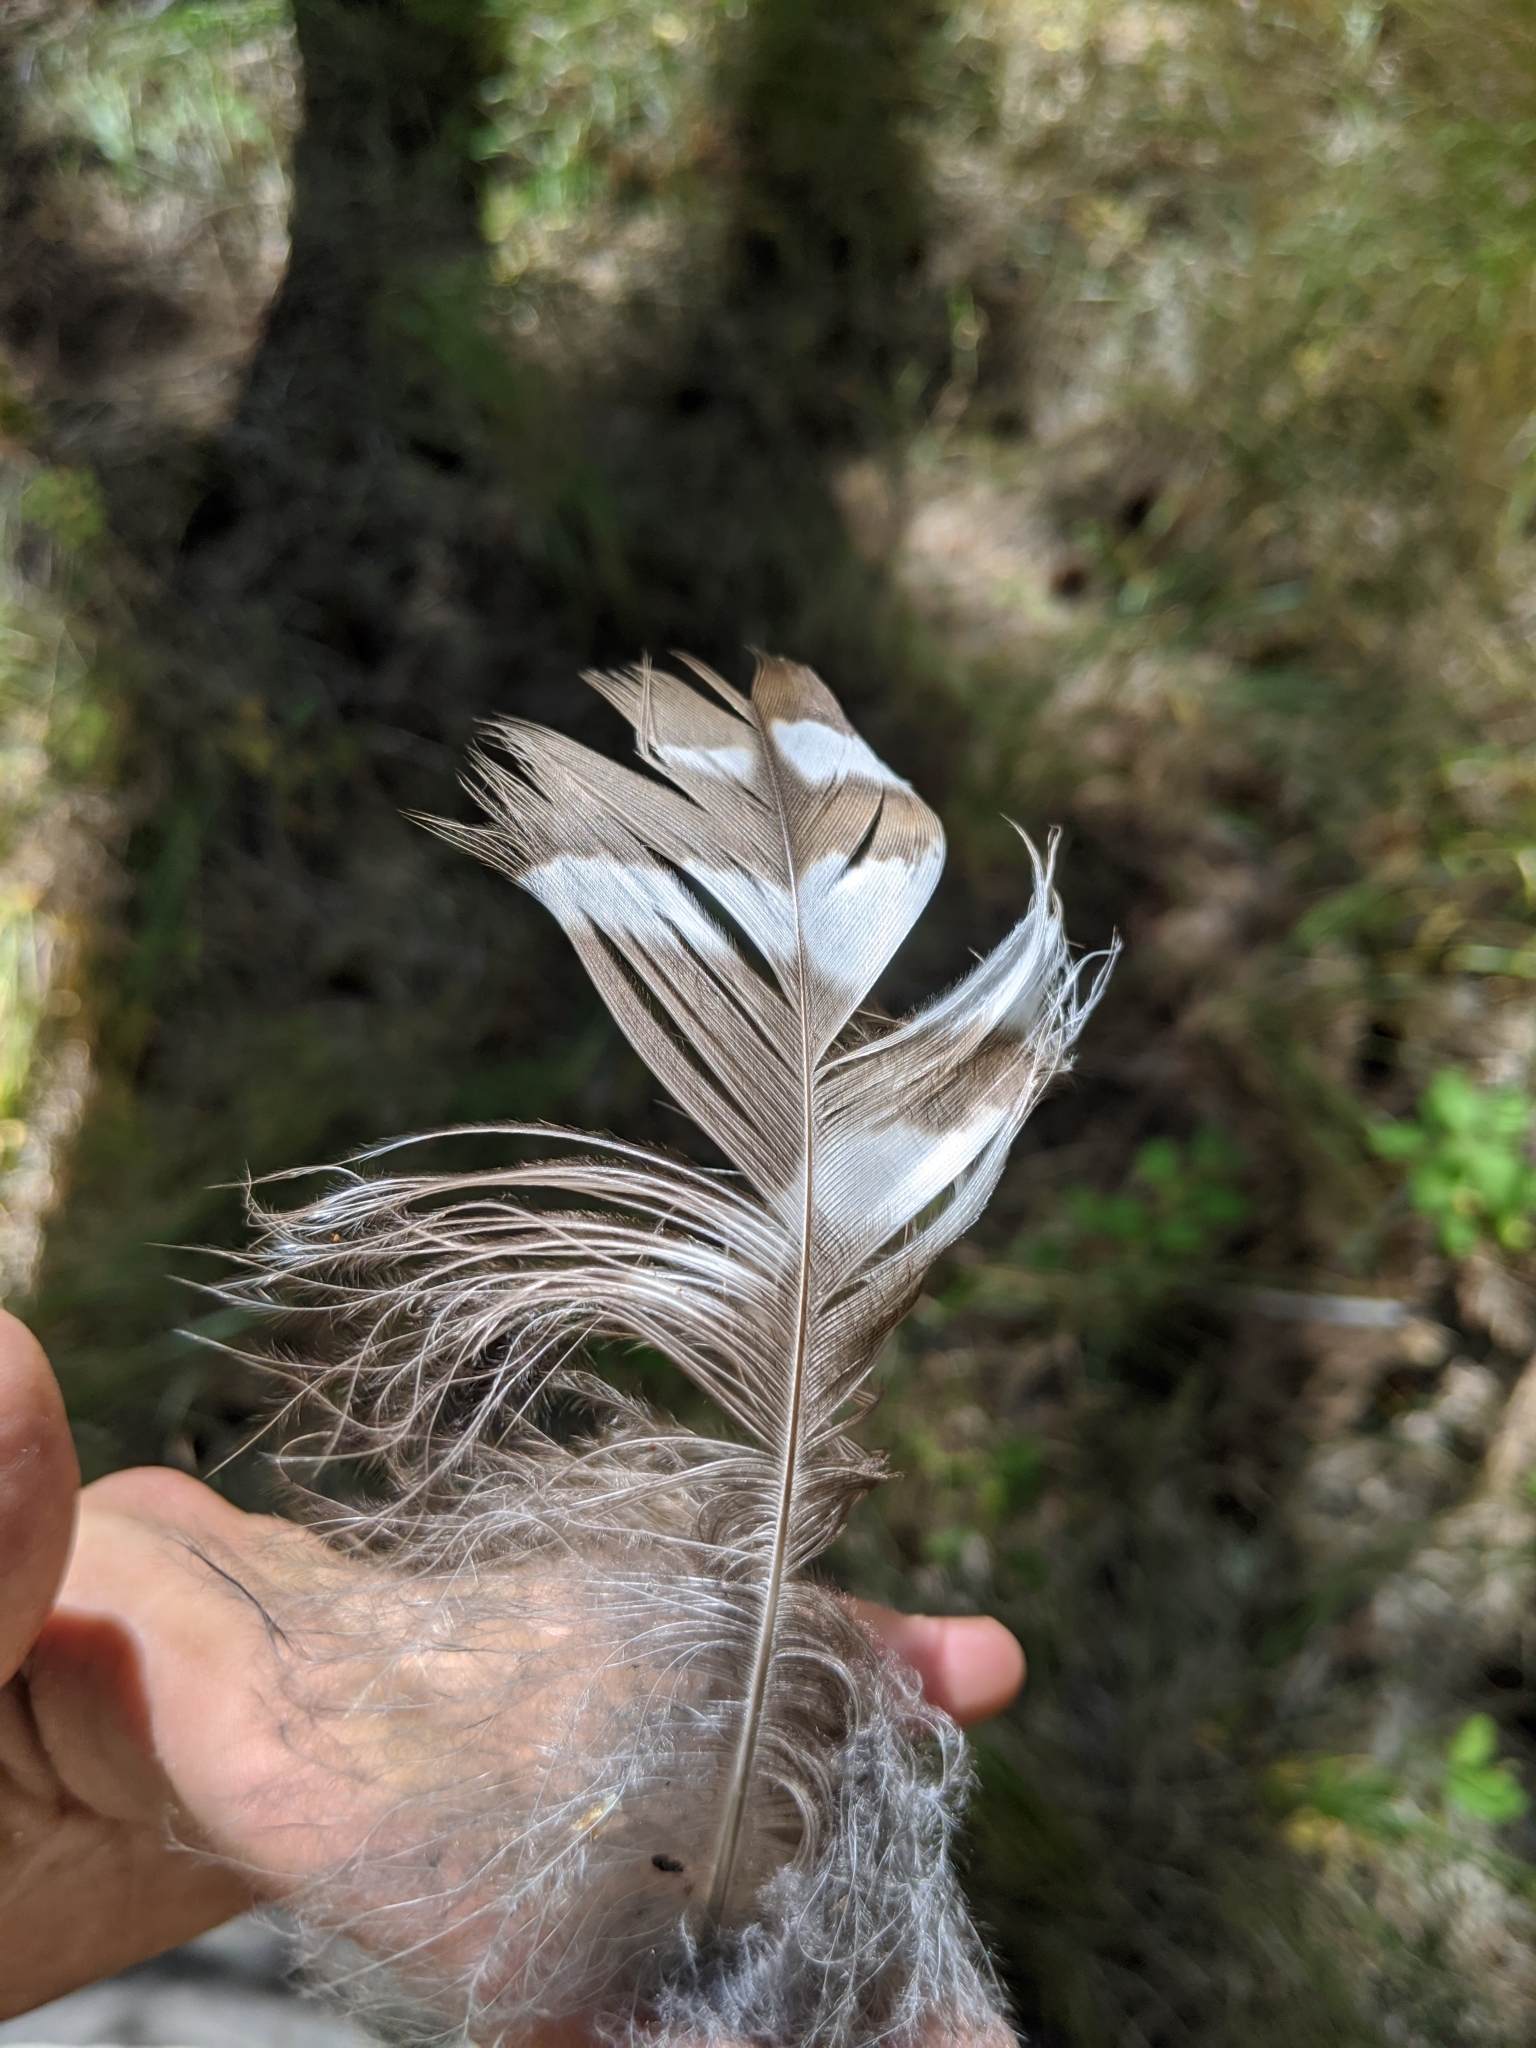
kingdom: Animalia
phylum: Chordata
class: Aves
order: Strigiformes
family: Strigidae
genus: Strix
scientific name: Strix varia
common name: Barred owl
